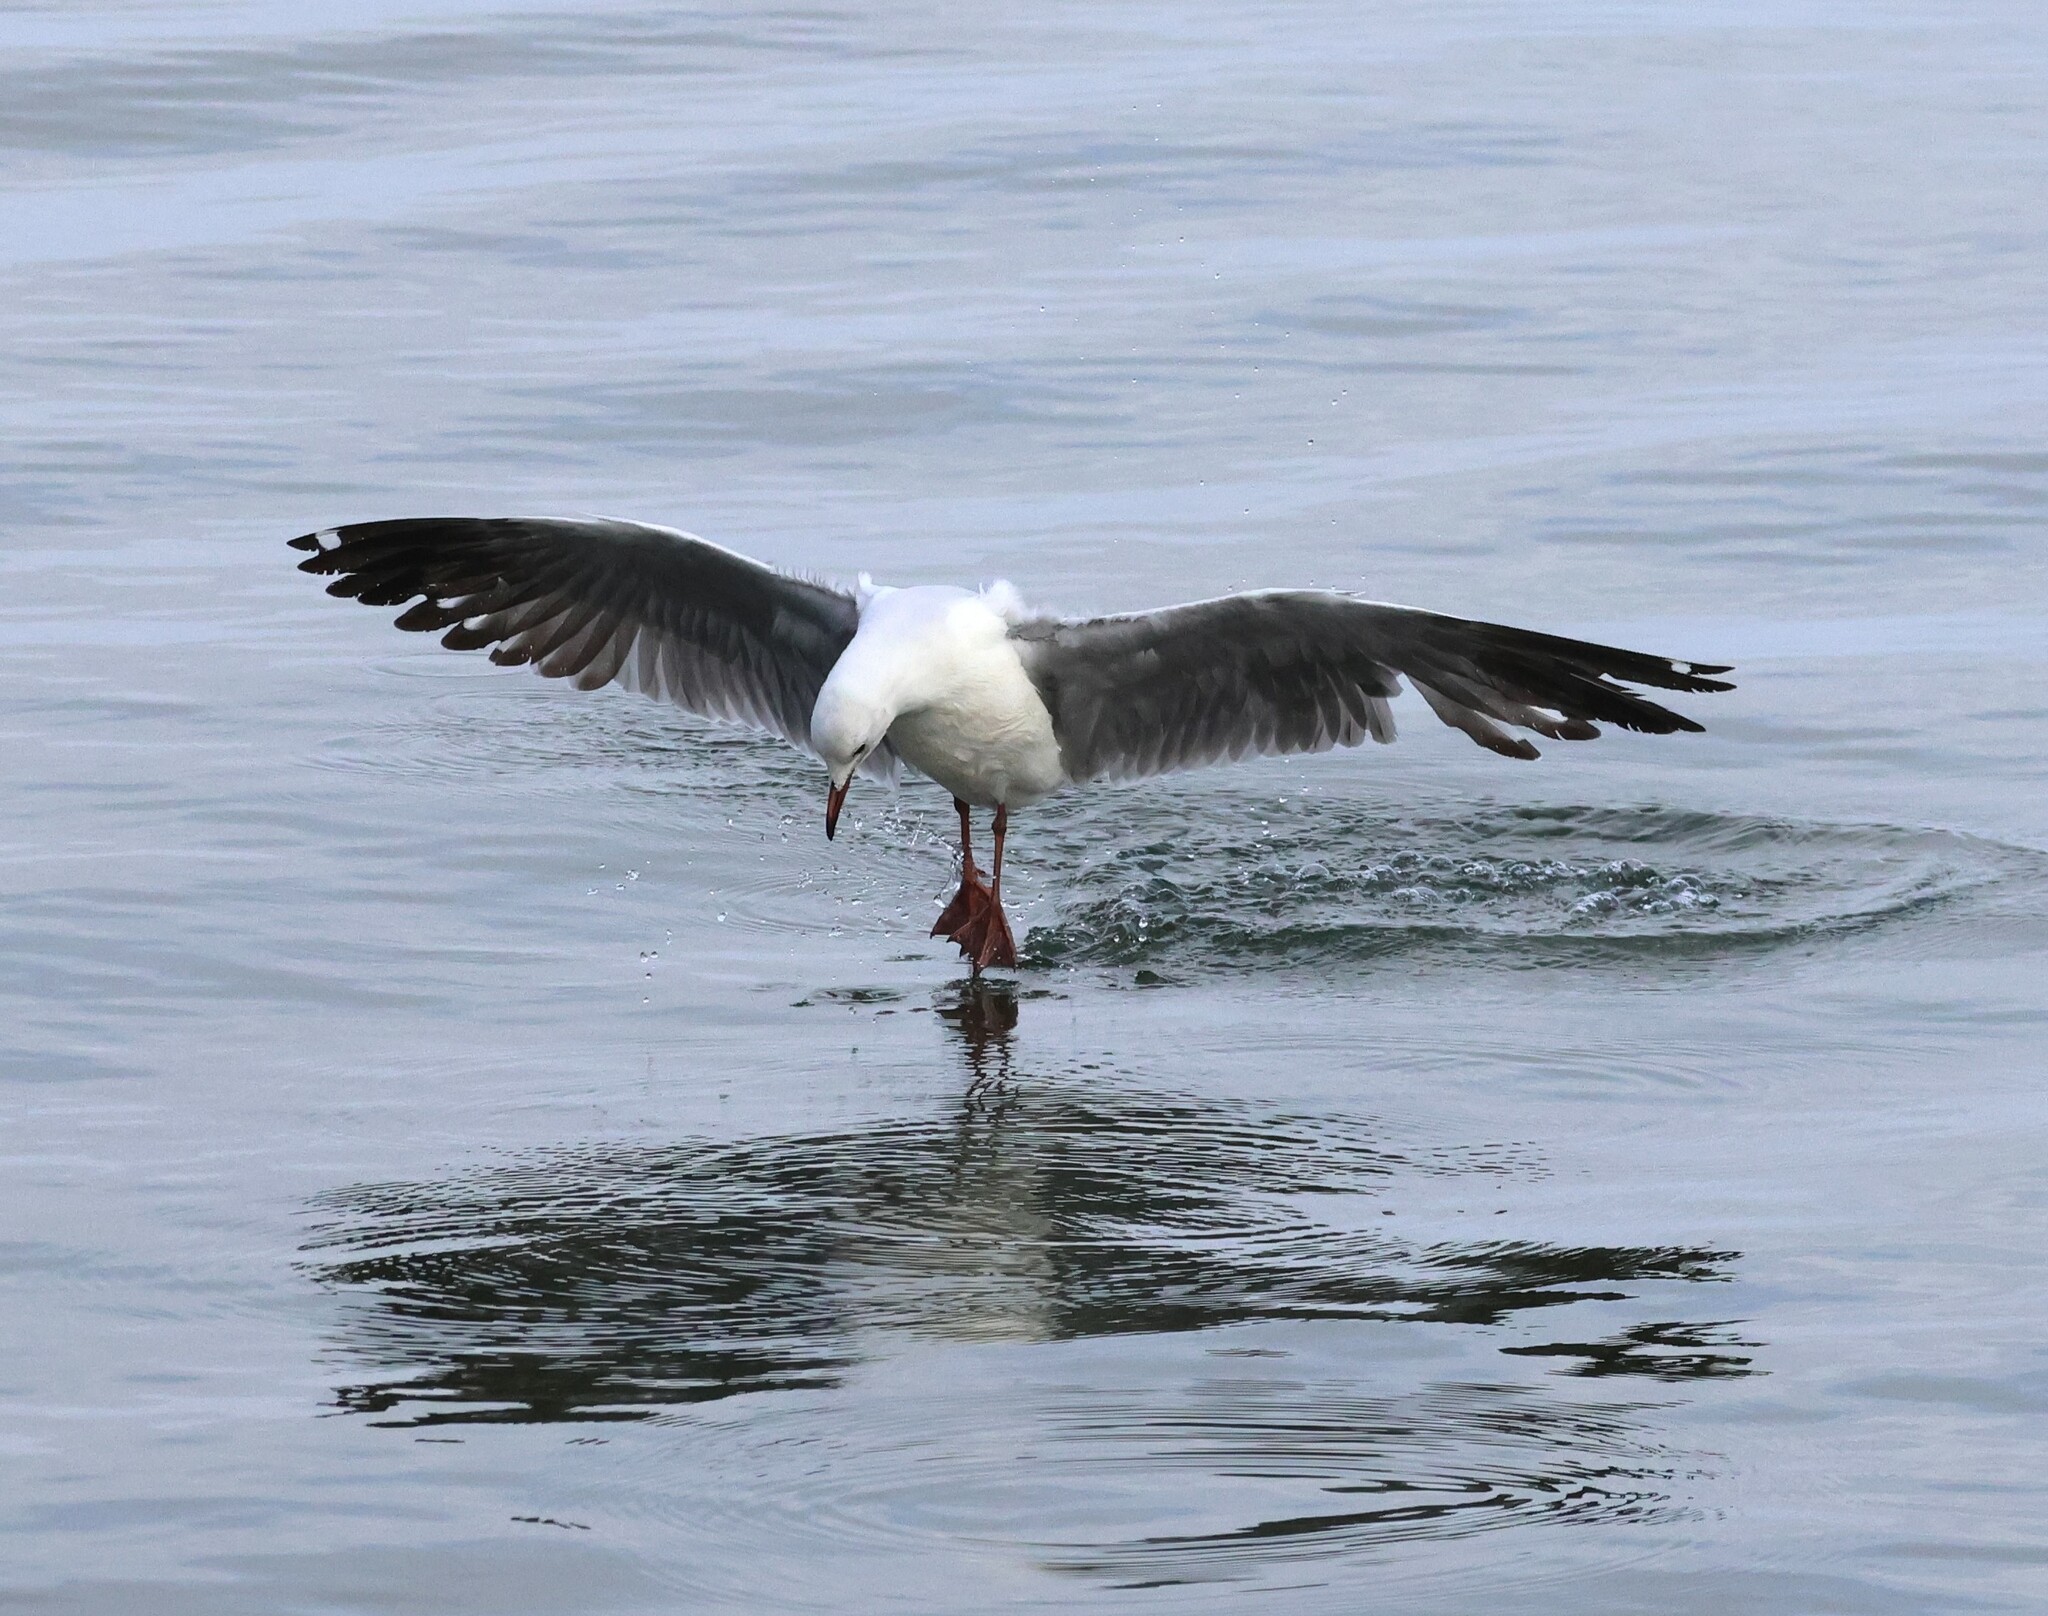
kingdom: Animalia
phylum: Chordata
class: Aves
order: Charadriiformes
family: Laridae
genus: Chroicocephalus
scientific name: Chroicocephalus hartlaubii
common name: Hartlaub's gull
